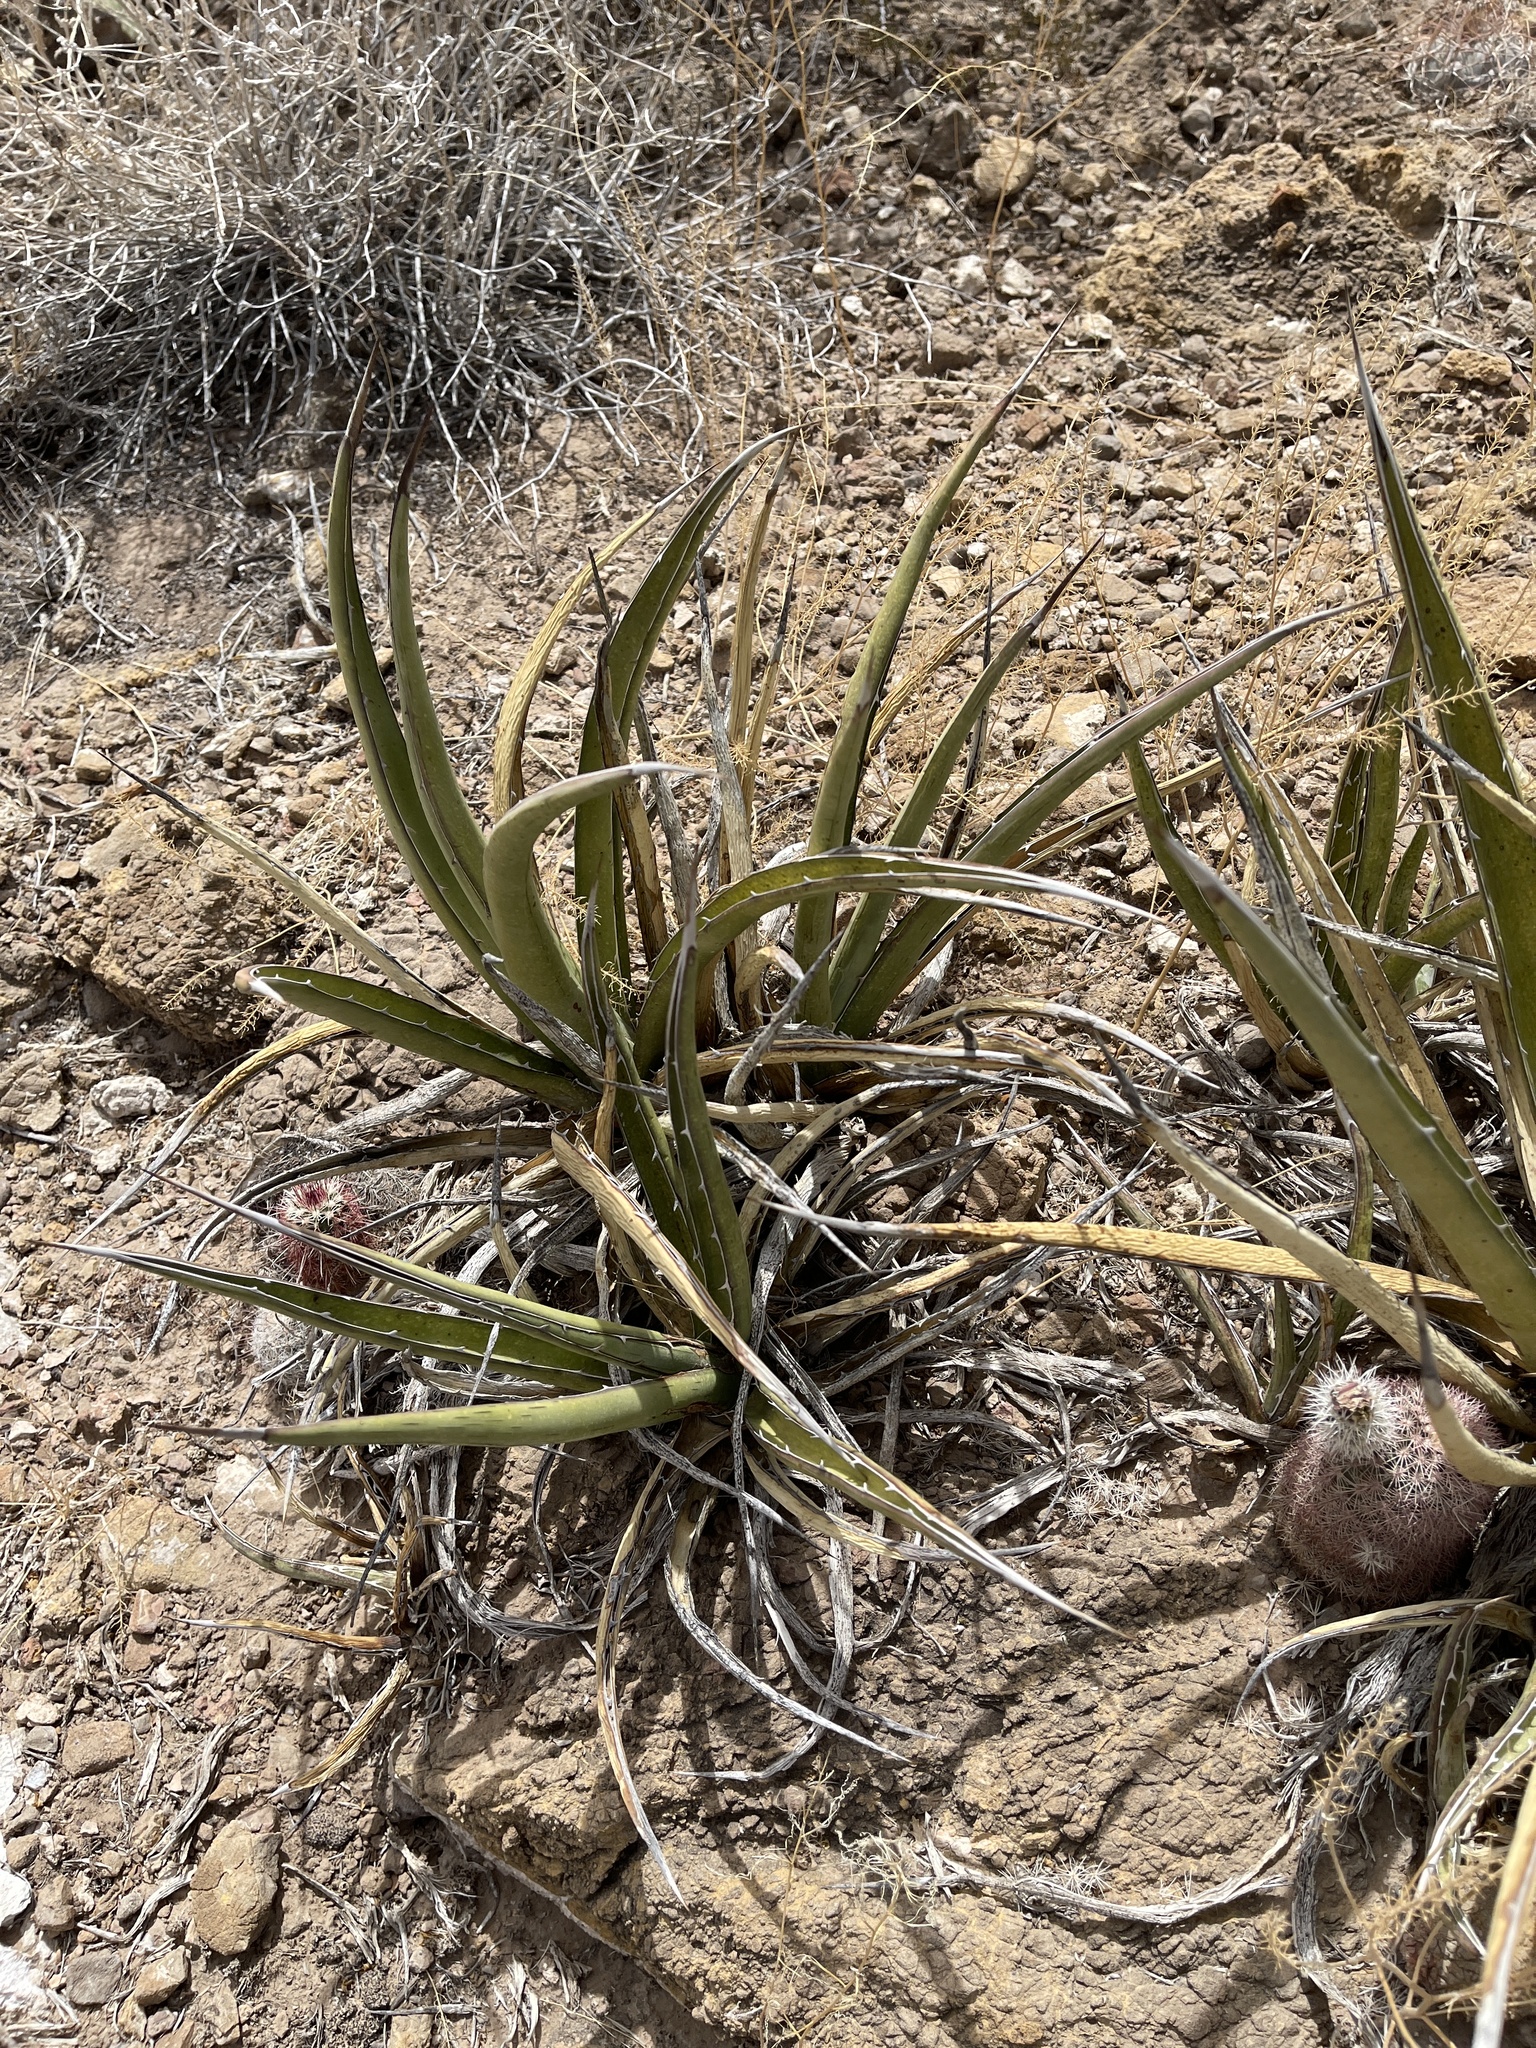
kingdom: Plantae
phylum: Tracheophyta
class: Liliopsida
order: Asparagales
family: Asparagaceae
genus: Agave
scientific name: Agave lechuguilla
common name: Lecheguilla agave
